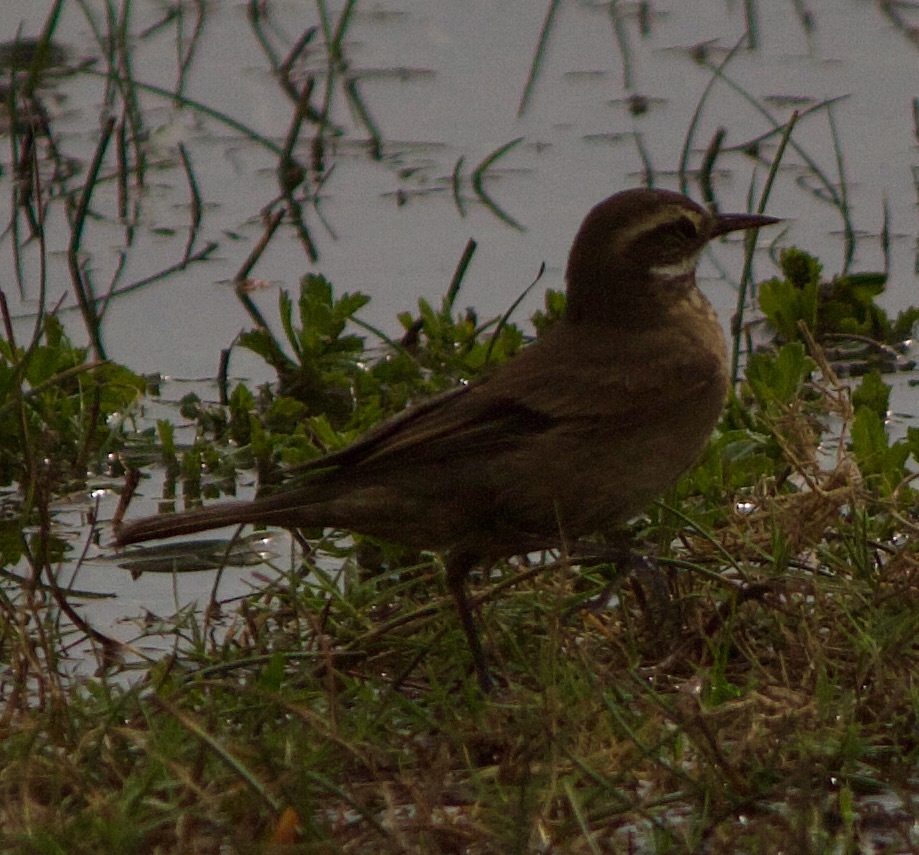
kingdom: Animalia
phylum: Chordata
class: Aves
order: Passeriformes
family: Furnariidae
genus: Cinclodes
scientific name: Cinclodes fuscus
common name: Buff-winged cinclodes
